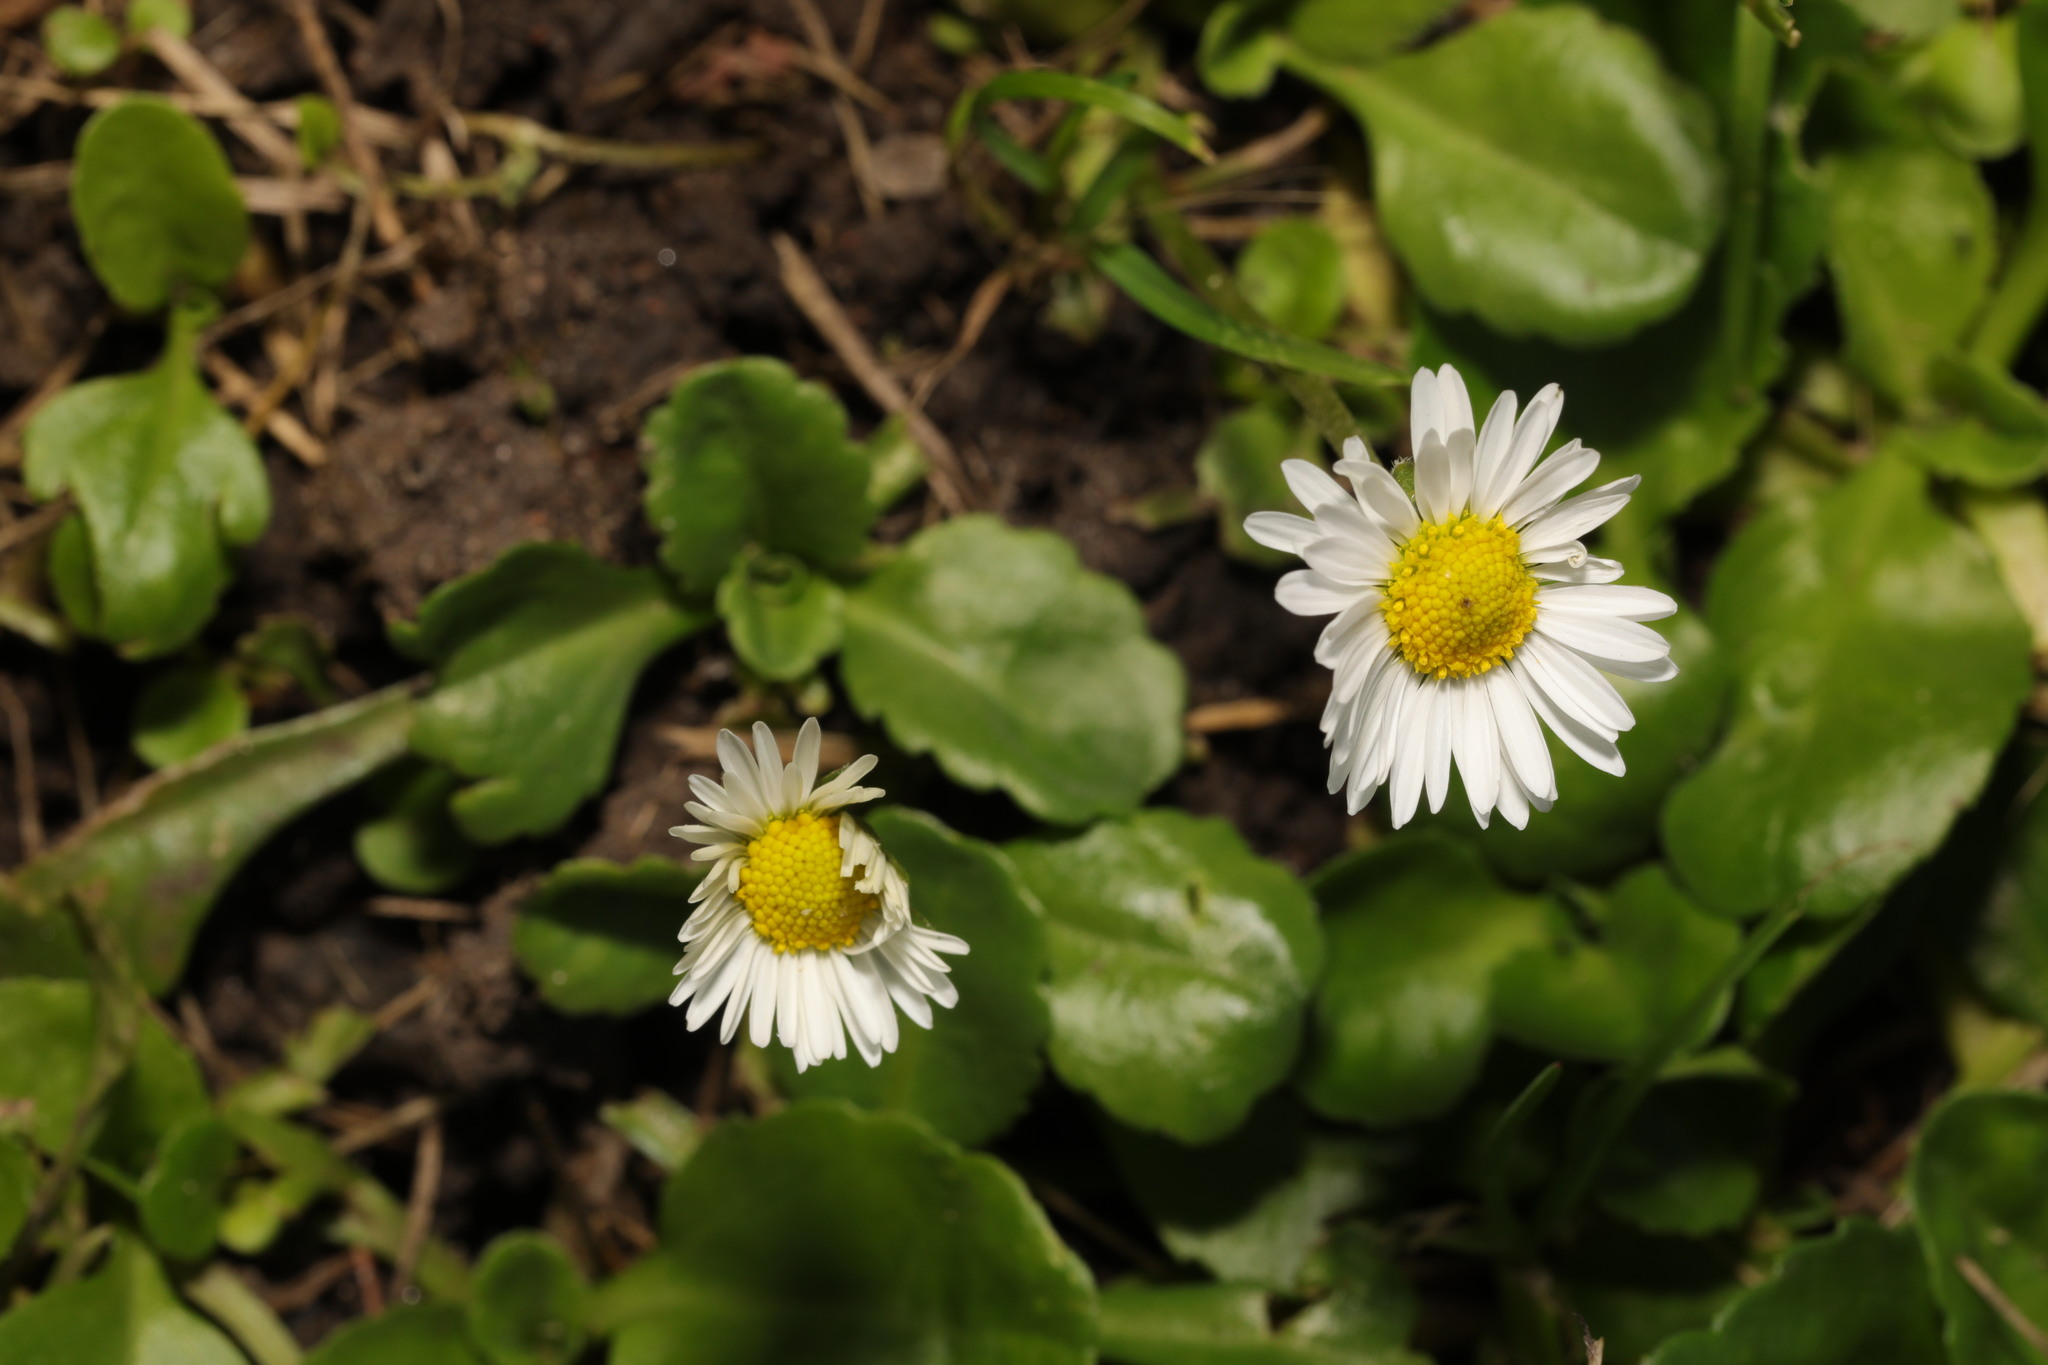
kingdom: Plantae
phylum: Tracheophyta
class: Magnoliopsida
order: Asterales
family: Asteraceae
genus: Bellis
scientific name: Bellis perennis
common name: Lawndaisy
